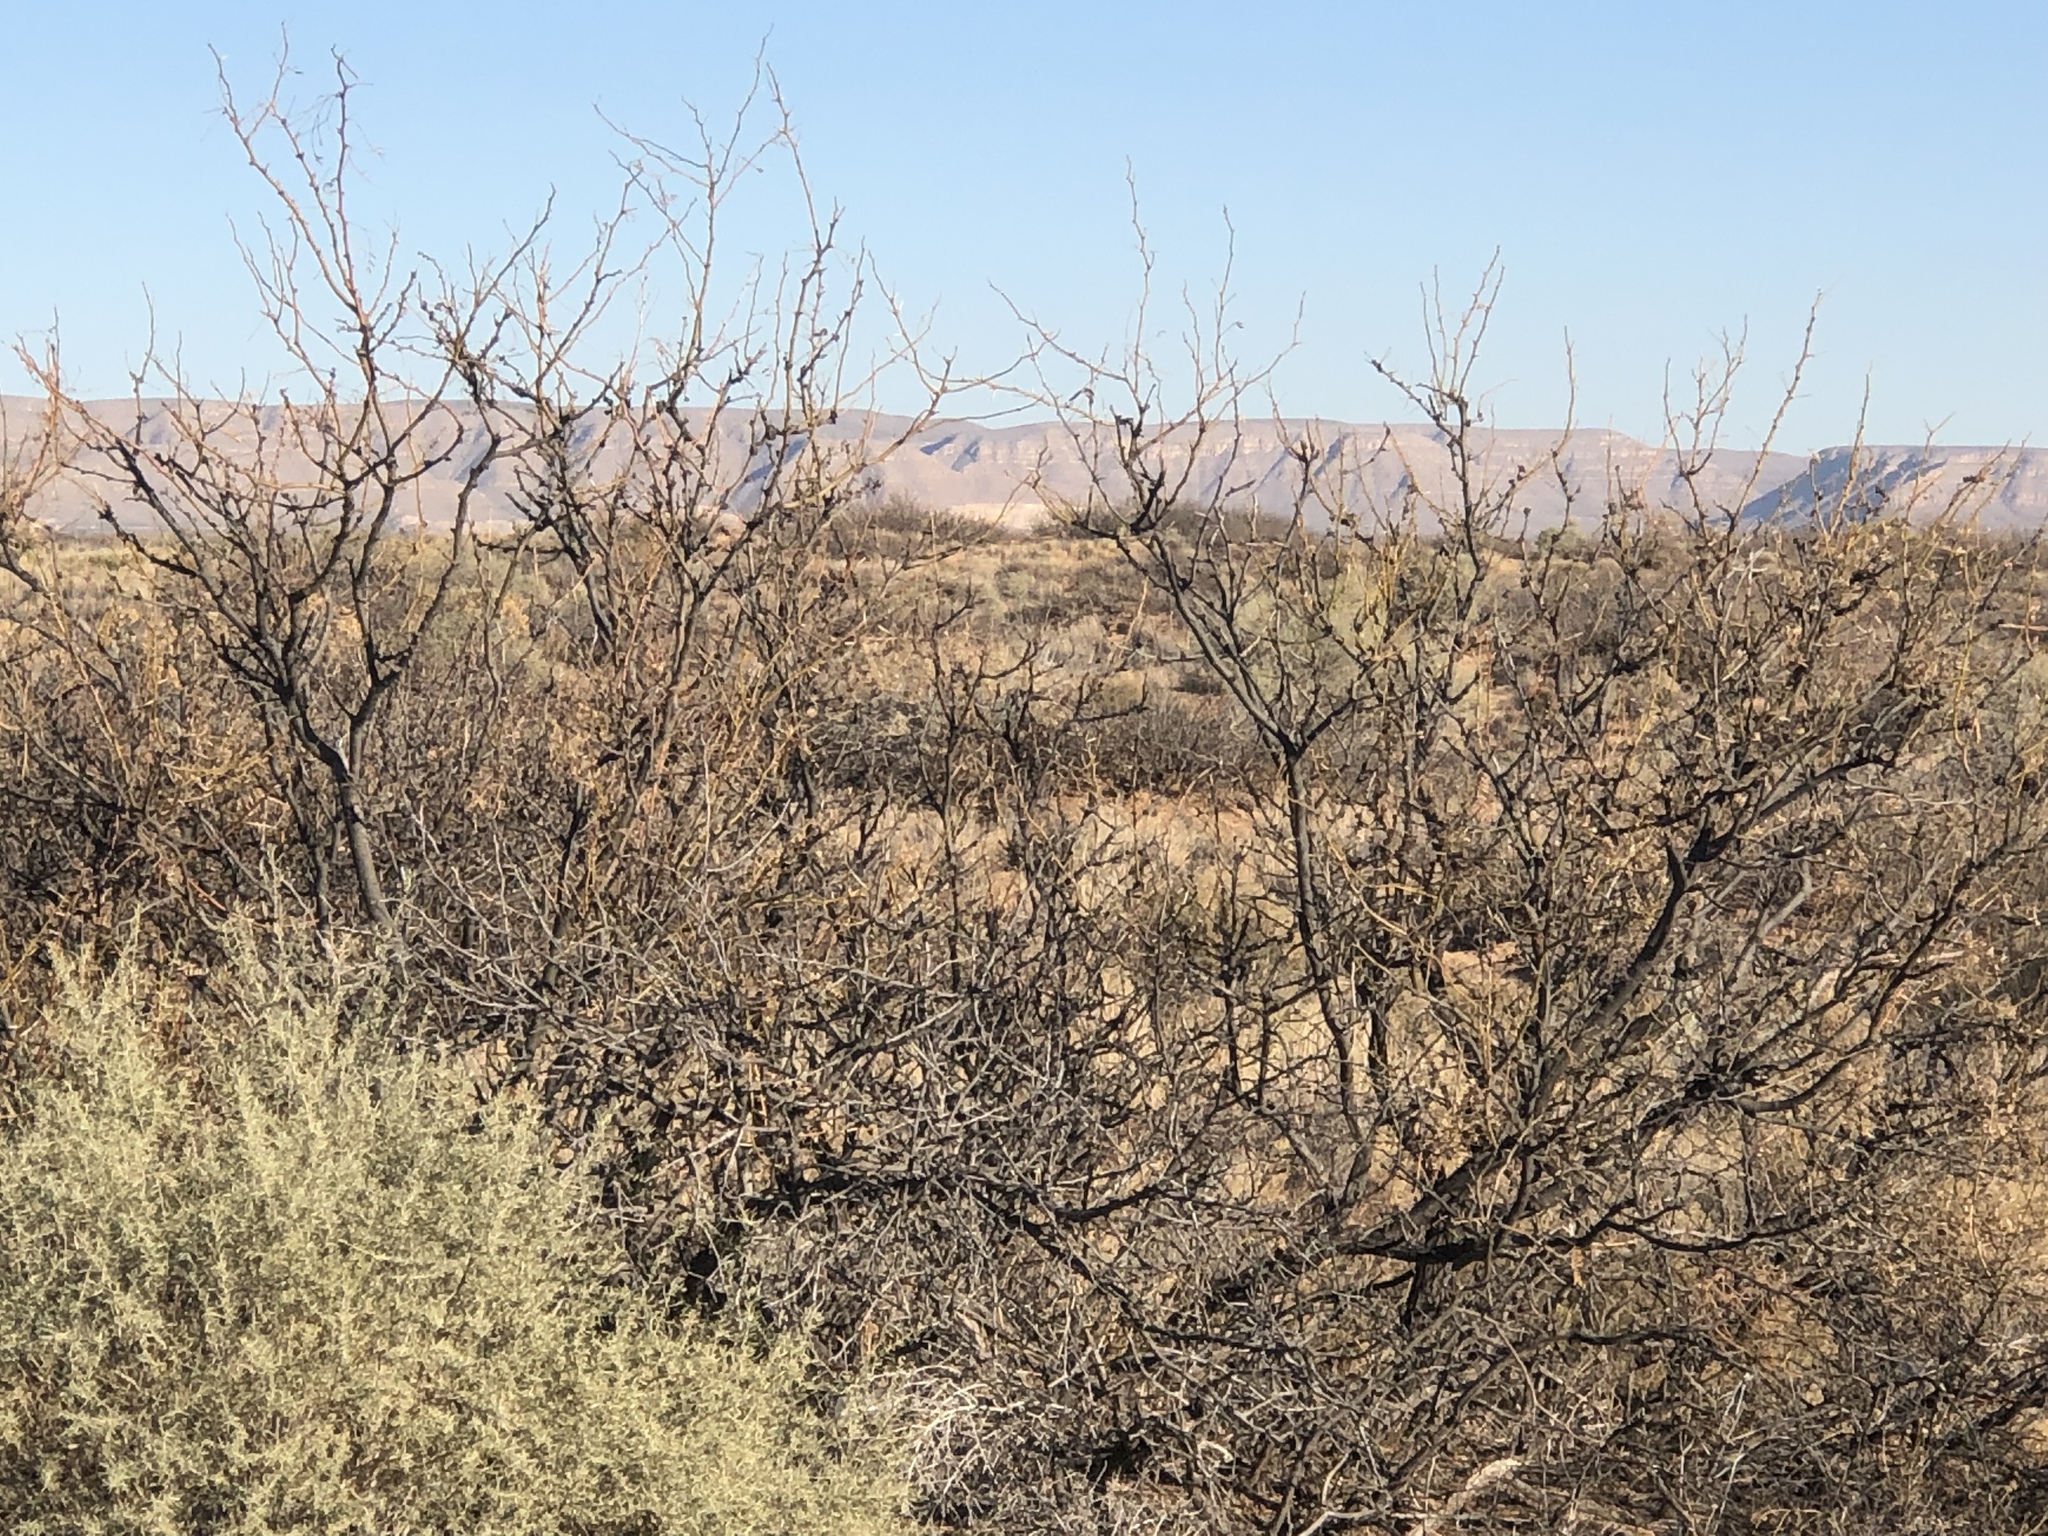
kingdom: Plantae
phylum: Tracheophyta
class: Magnoliopsida
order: Fabales
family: Fabaceae
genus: Prosopis
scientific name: Prosopis glandulosa
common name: Honey mesquite
